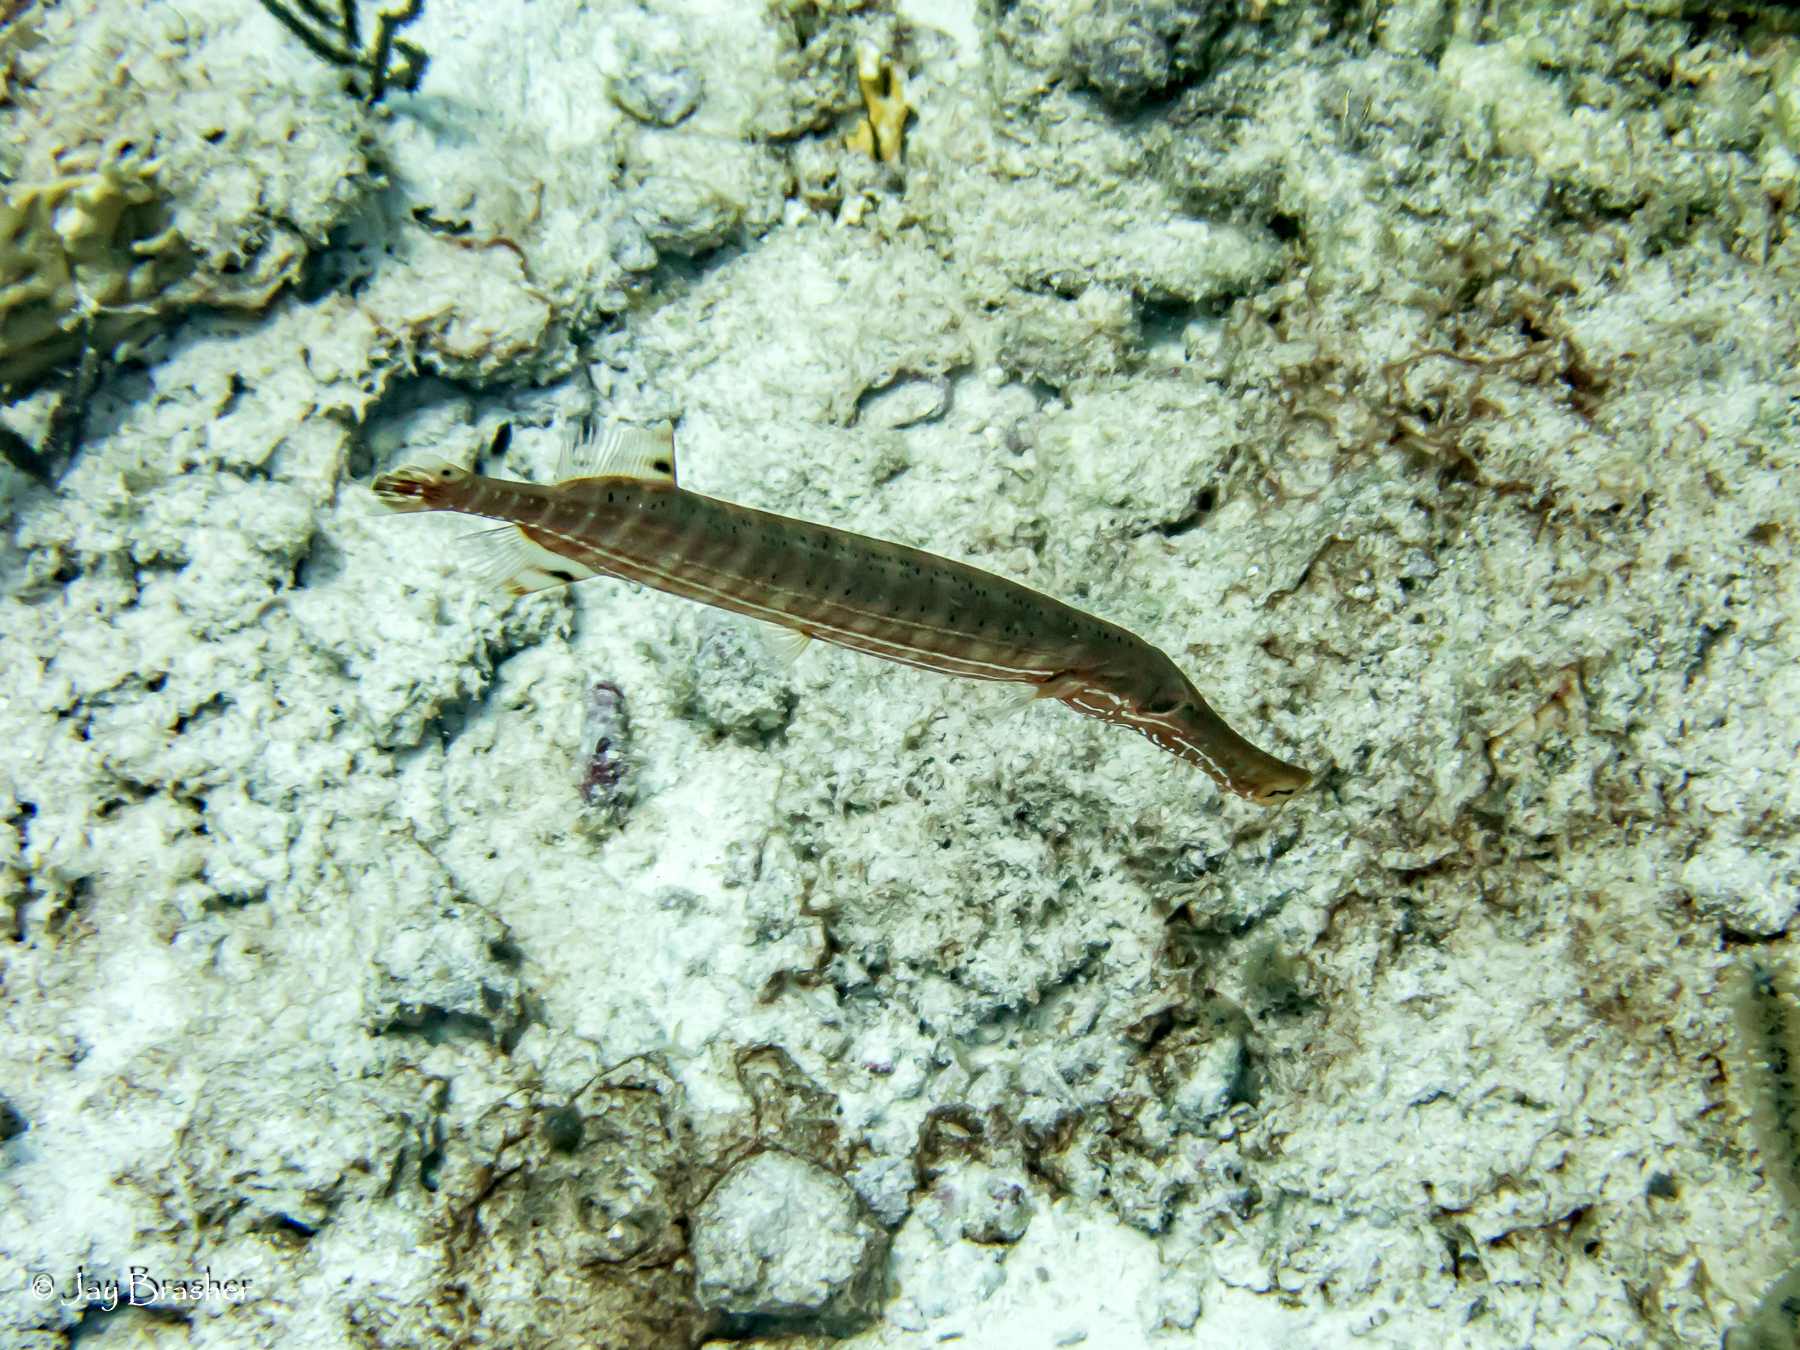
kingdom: Animalia
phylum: Chordata
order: Syngnathiformes
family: Aulostomidae
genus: Aulostomus
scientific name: Aulostomus maculatus
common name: West atlantic trumpetfish
